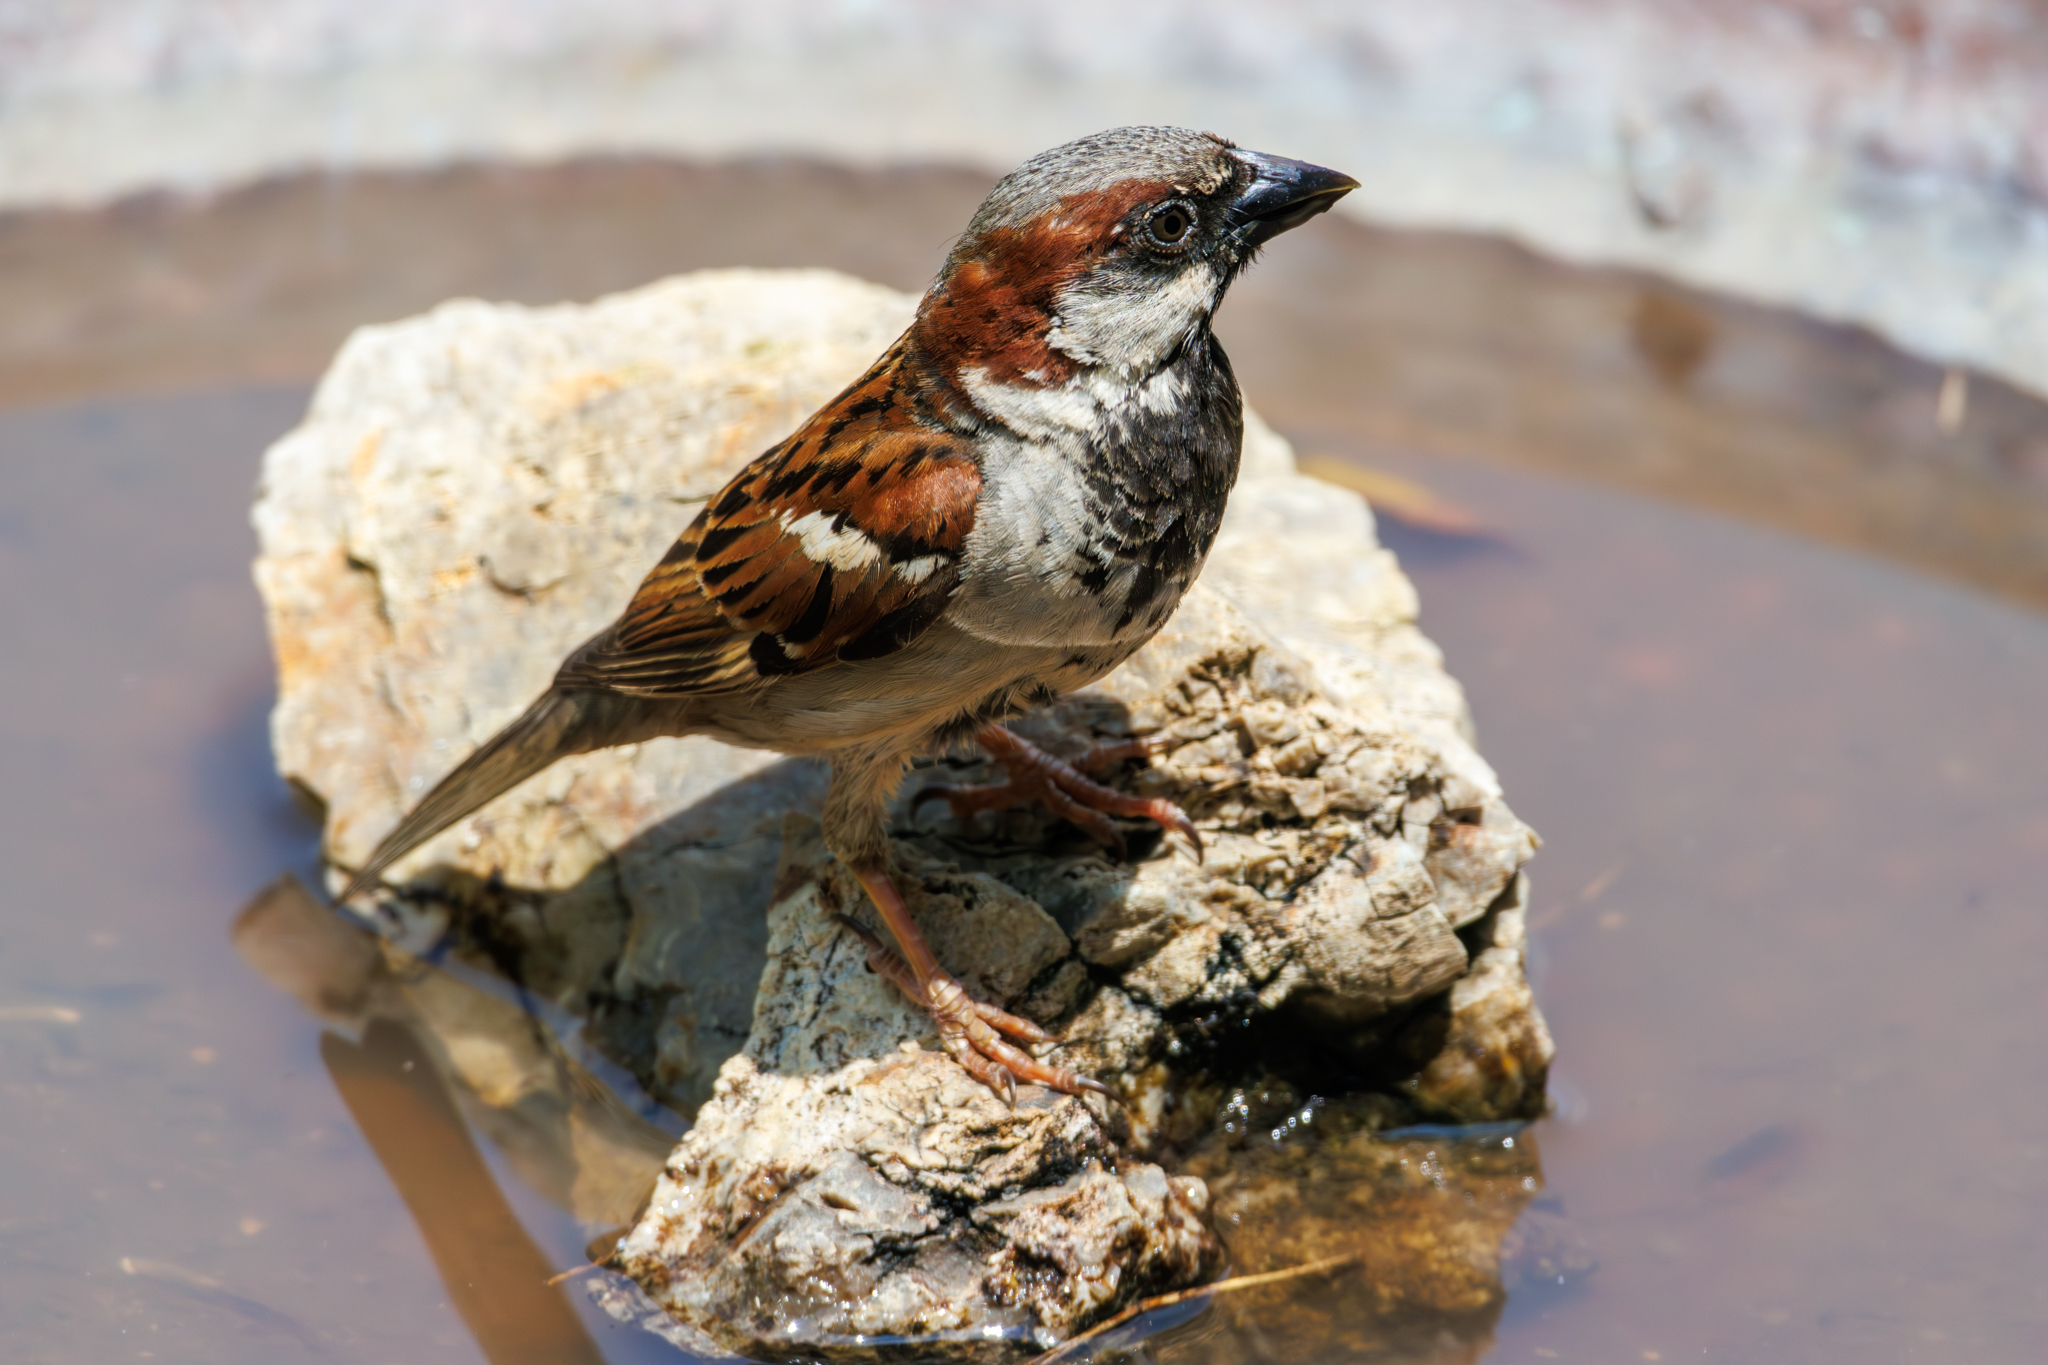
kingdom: Animalia
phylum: Chordata
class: Aves
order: Passeriformes
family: Passeridae
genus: Passer
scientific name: Passer domesticus
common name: House sparrow
